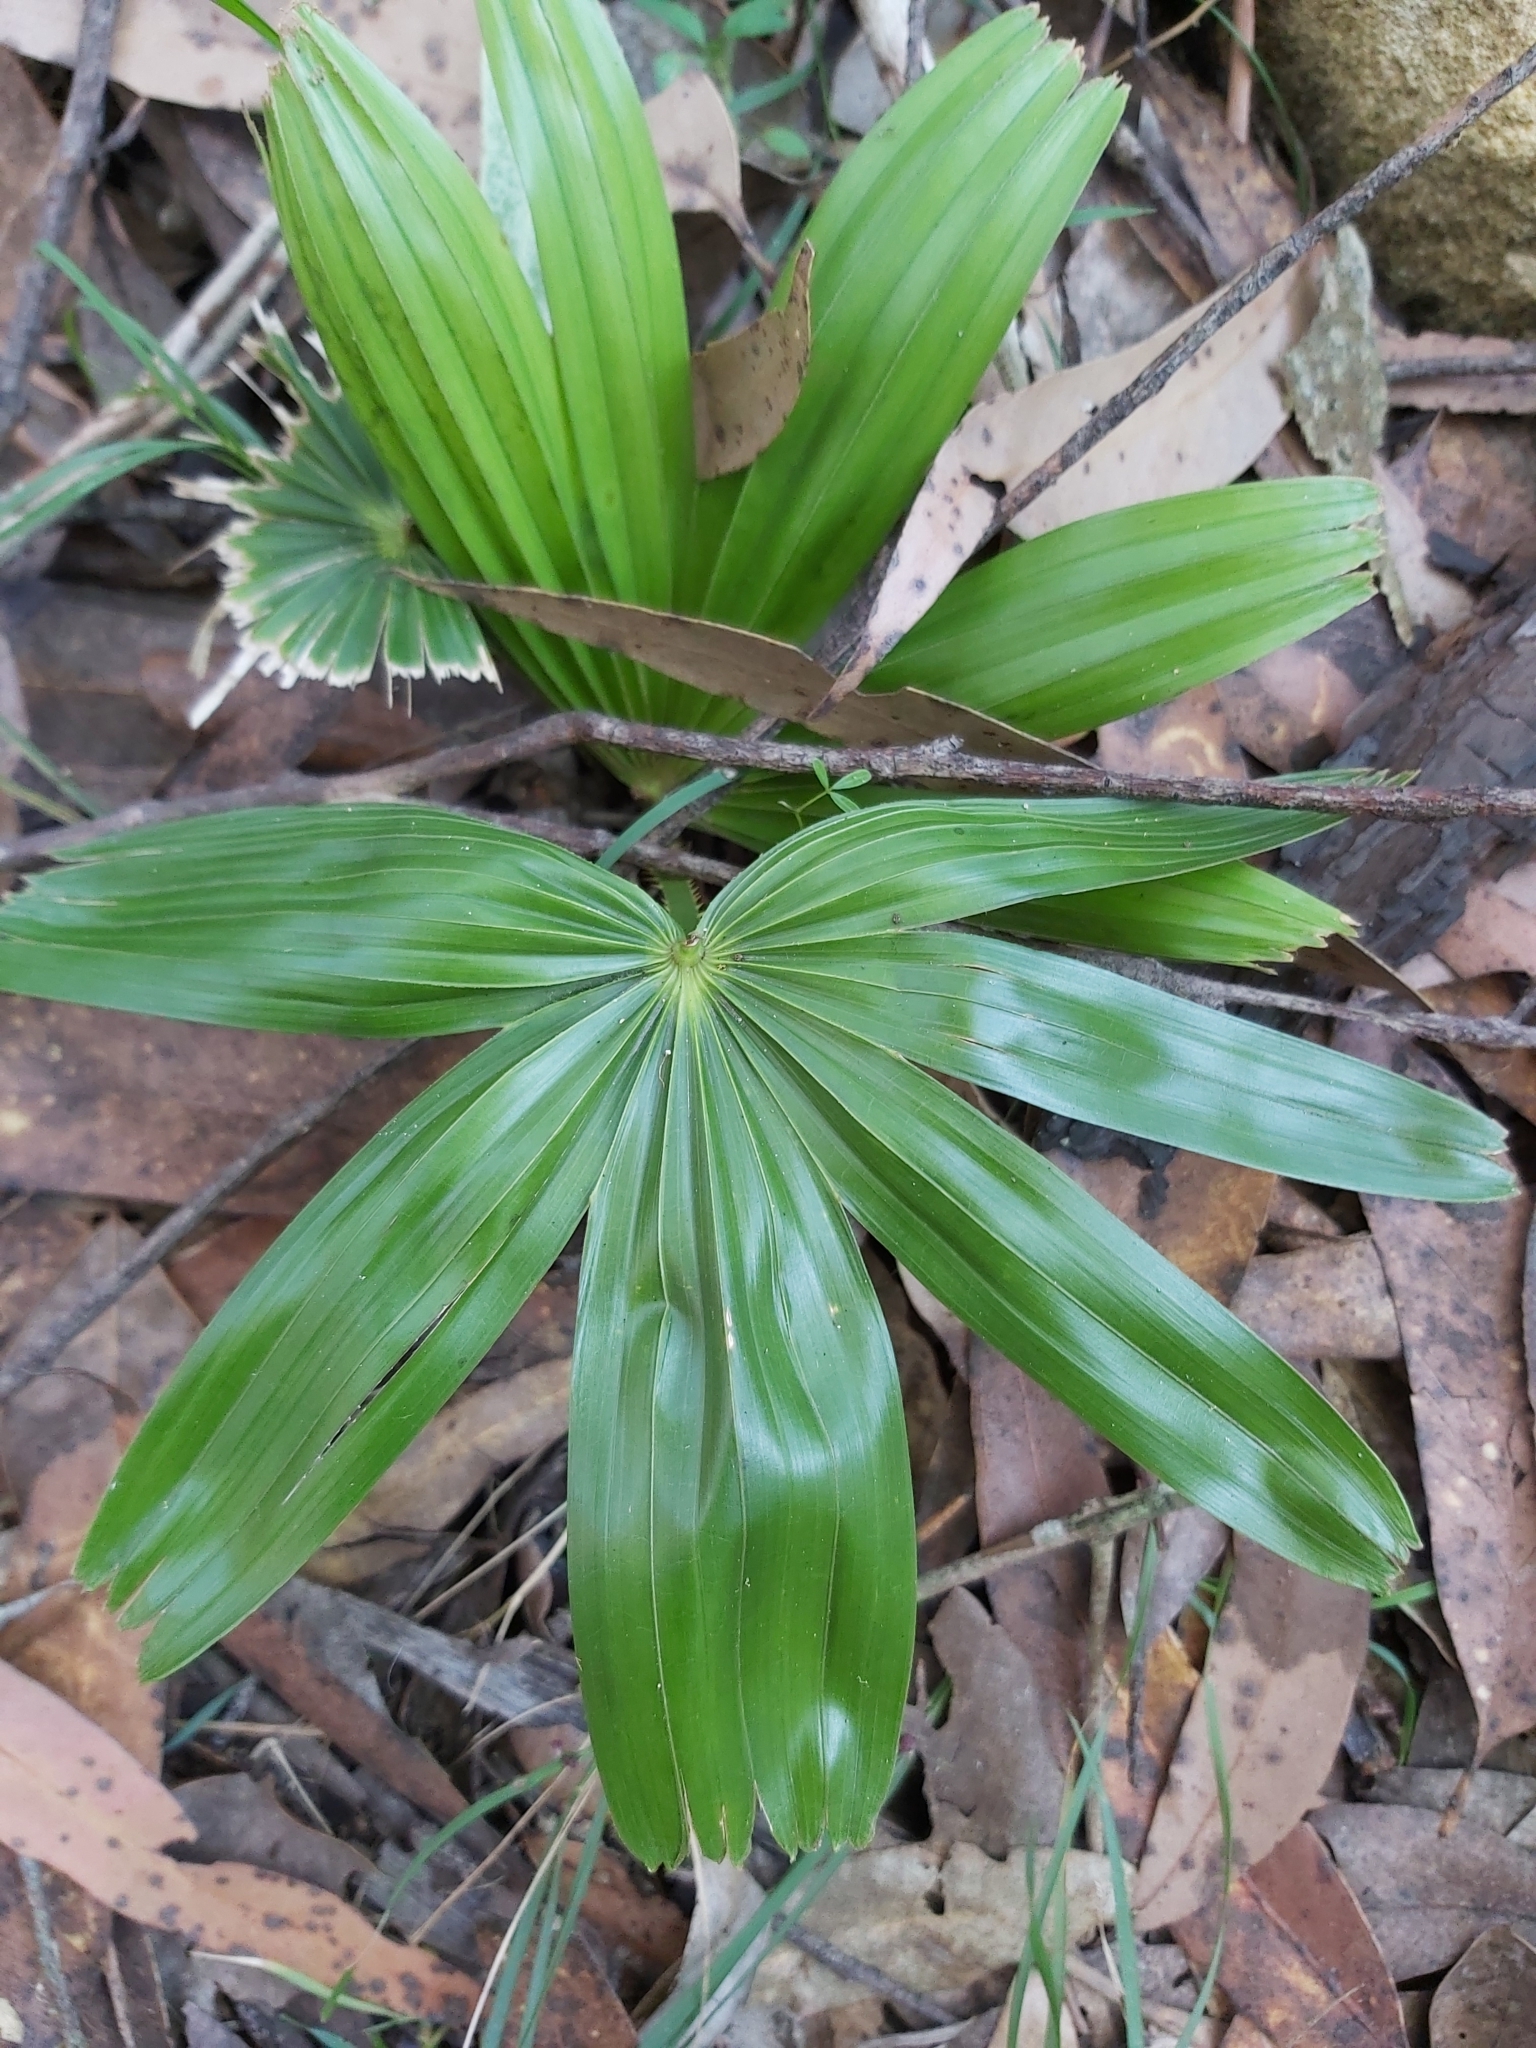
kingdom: Plantae
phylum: Tracheophyta
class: Liliopsida
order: Arecales
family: Arecaceae
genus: Livistona
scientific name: Livistona australis
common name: Cabbage fan palm
